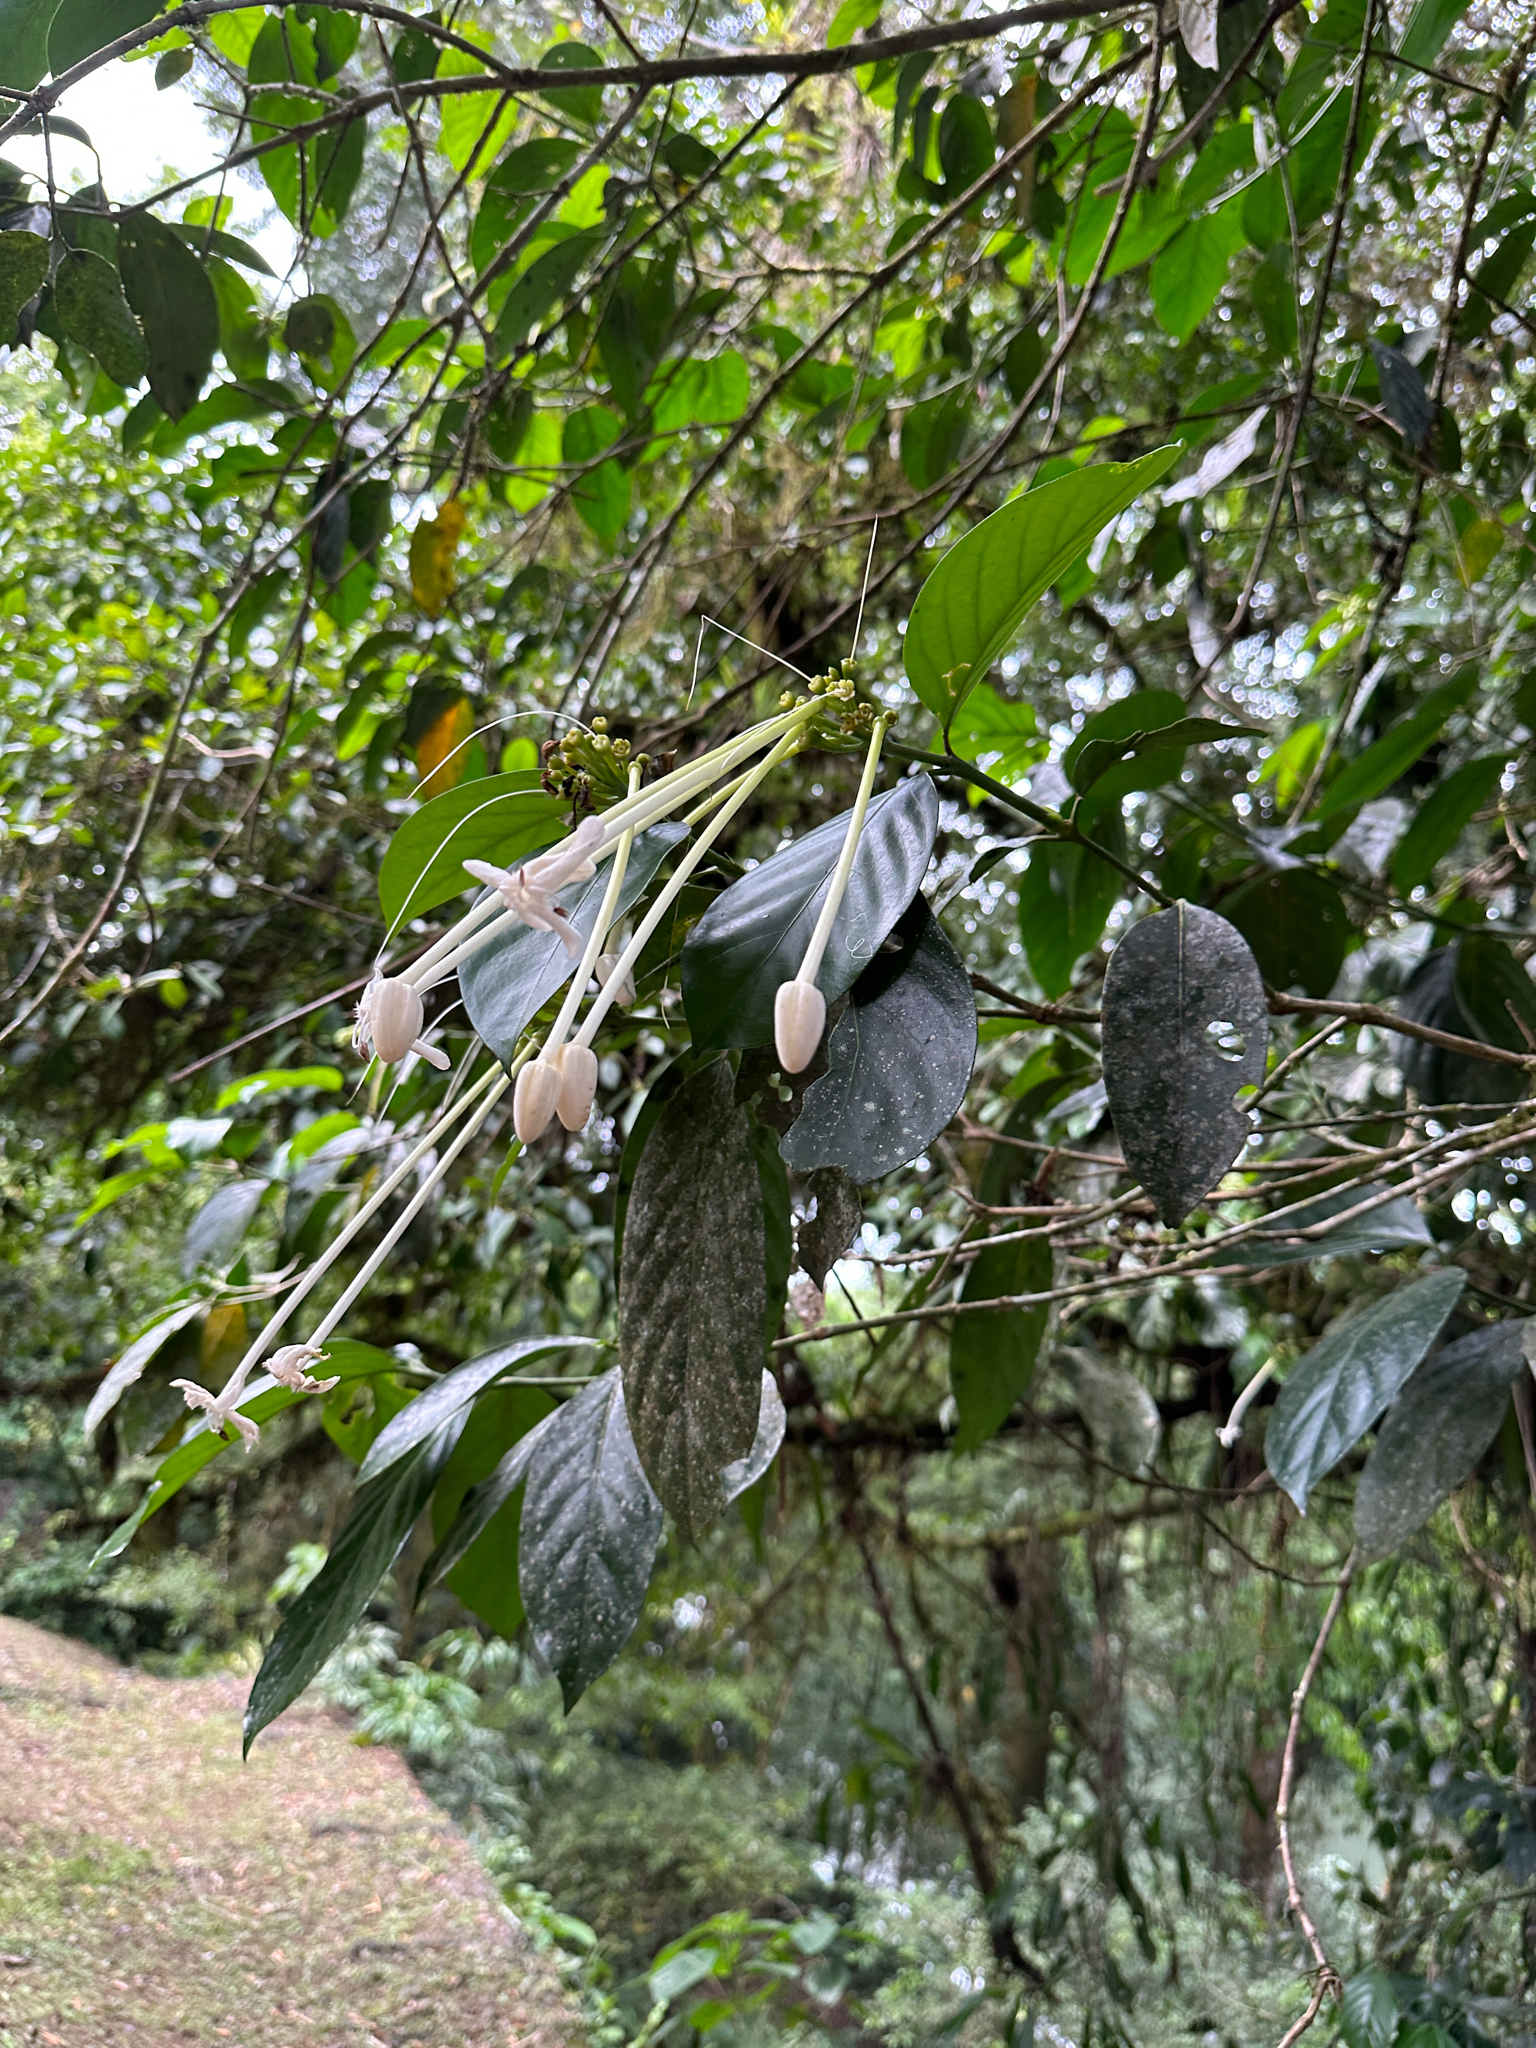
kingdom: Plantae
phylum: Tracheophyta
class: Magnoliopsida
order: Gentianales
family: Rubiaceae
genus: Posoqueria
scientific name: Posoqueria latifolia
